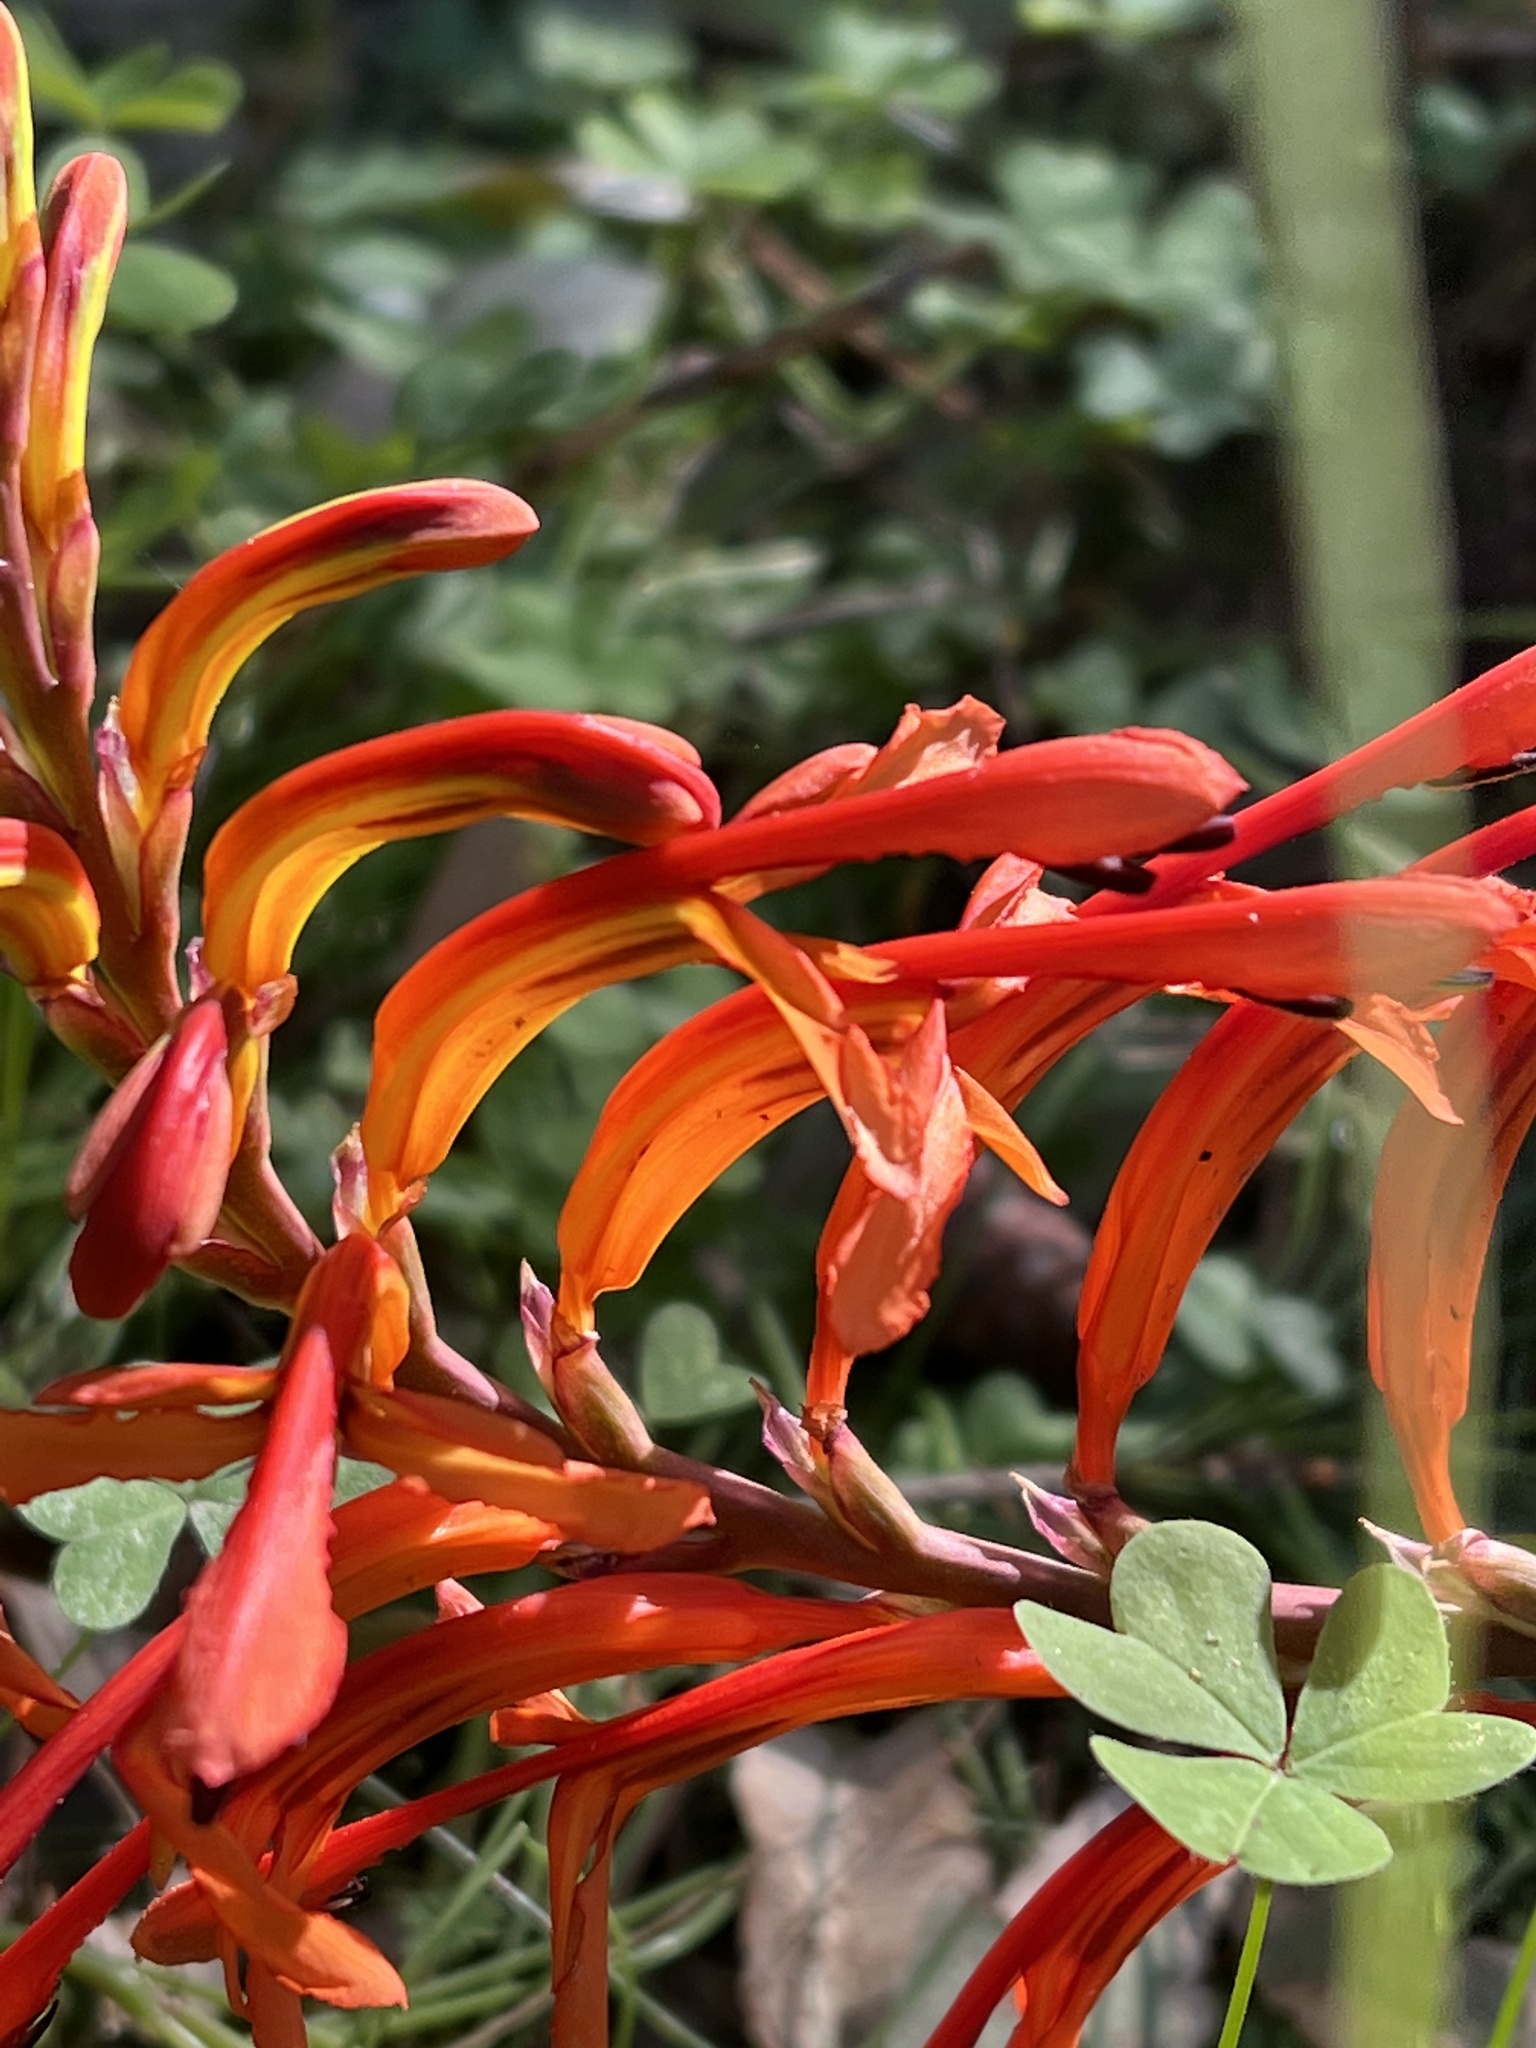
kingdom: Plantae
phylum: Tracheophyta
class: Liliopsida
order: Asparagales
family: Iridaceae
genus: Chasmanthe
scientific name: Chasmanthe floribunda
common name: African cornflag
